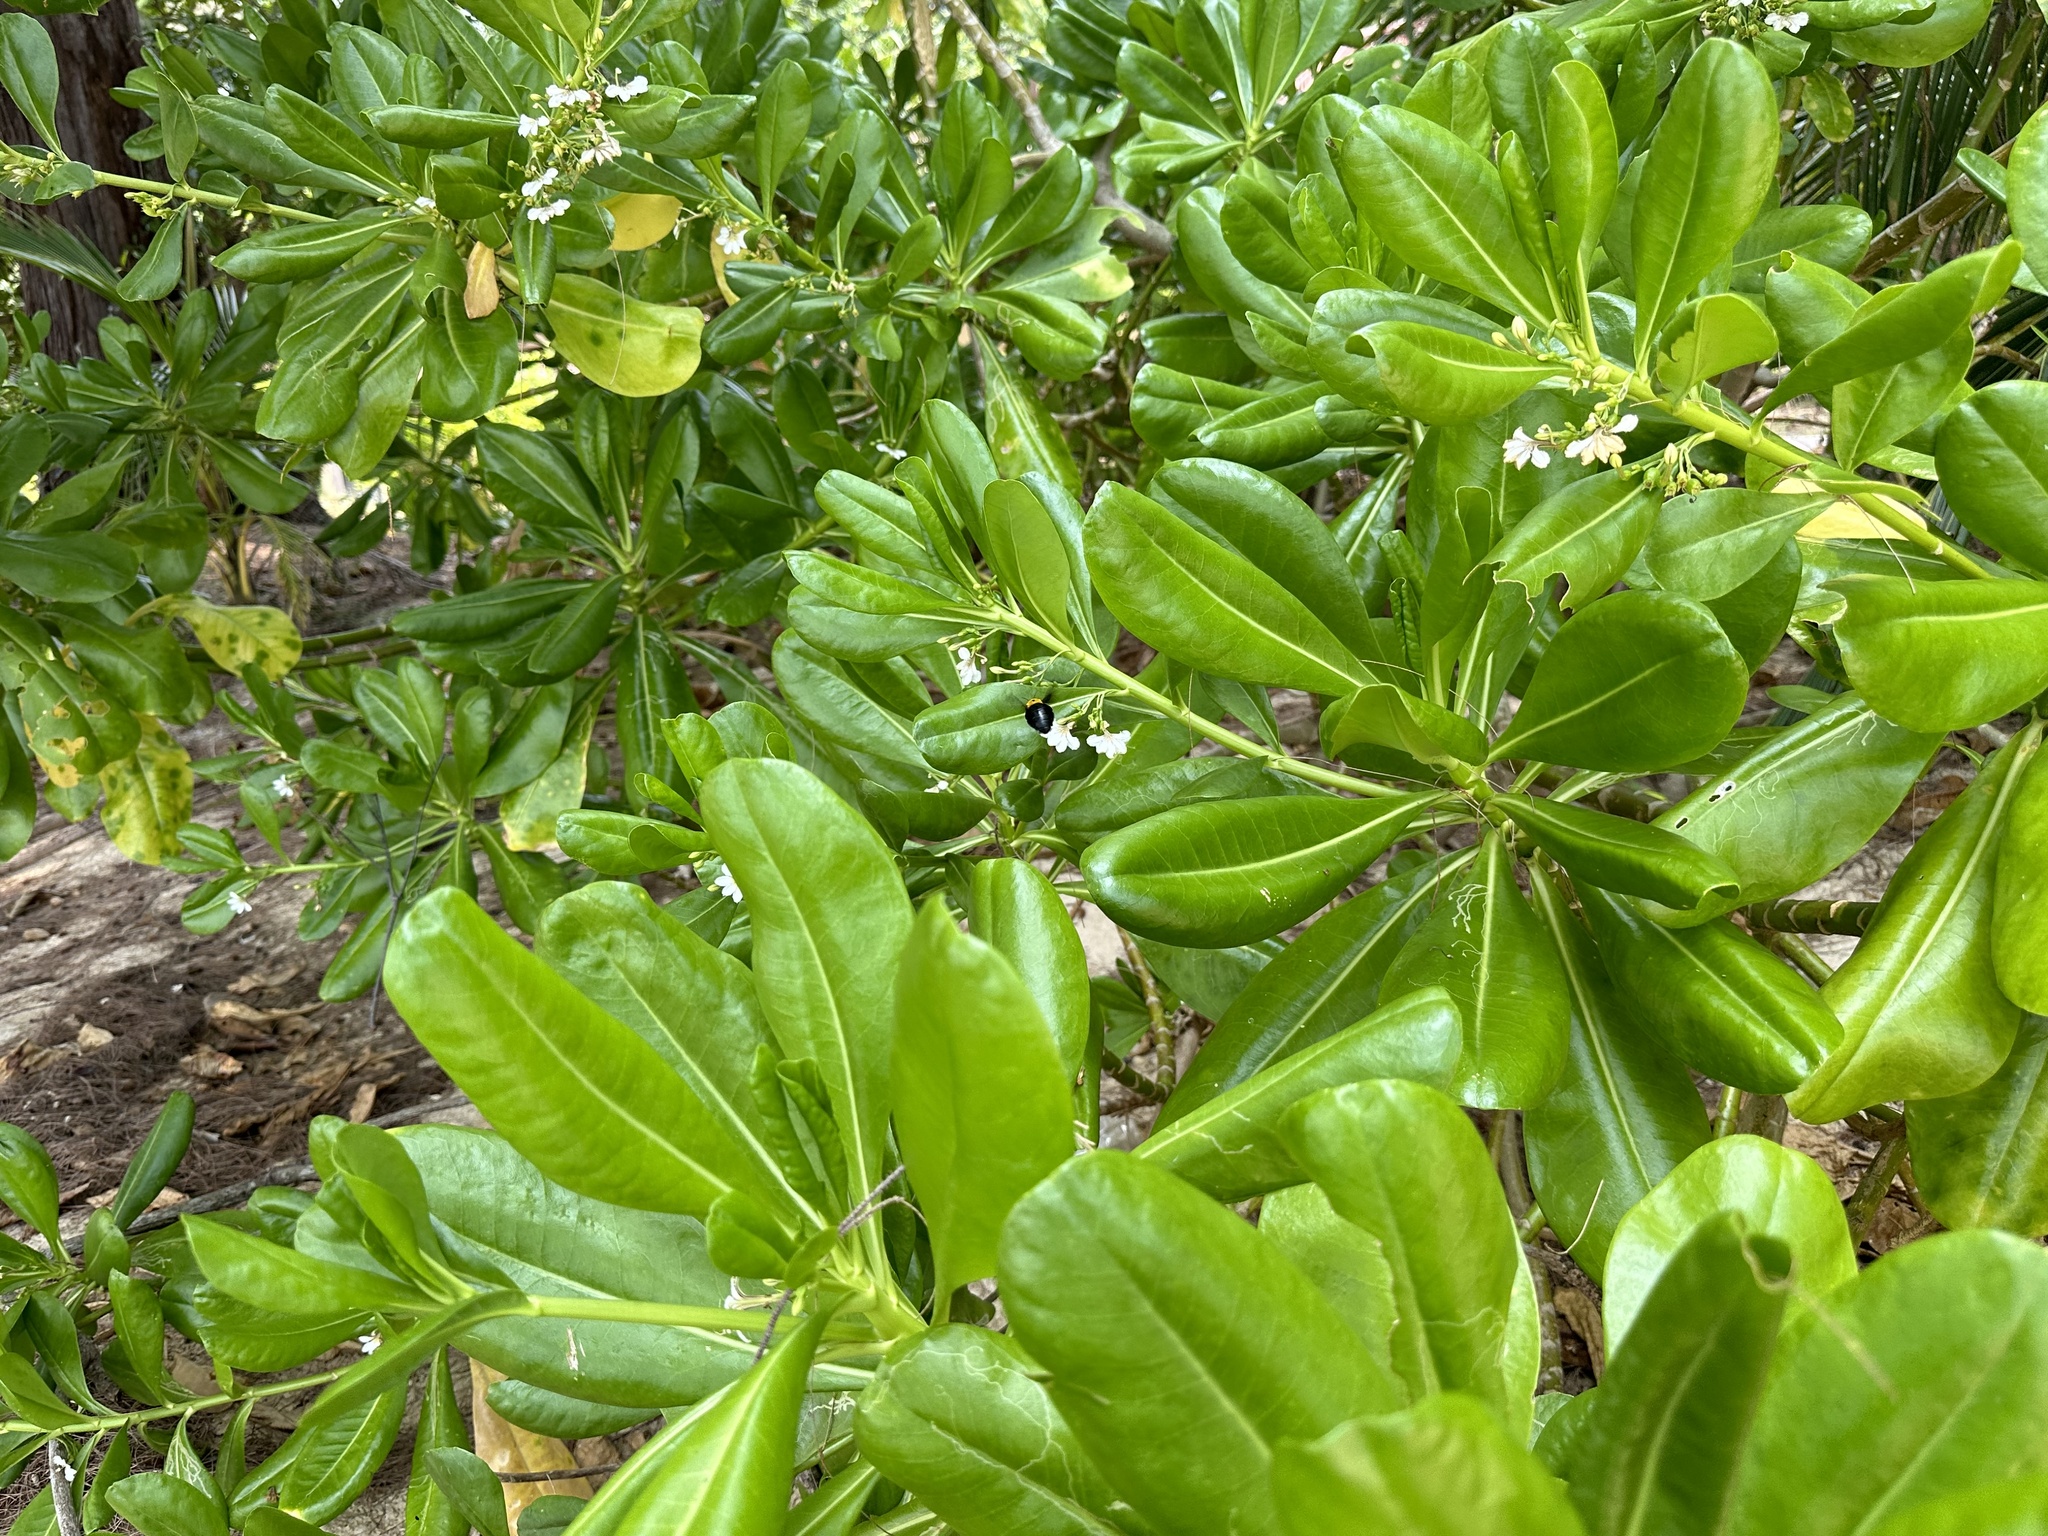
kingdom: Plantae
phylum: Tracheophyta
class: Magnoliopsida
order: Asterales
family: Goodeniaceae
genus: Scaevola
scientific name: Scaevola taccada
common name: Sea lettucetree
